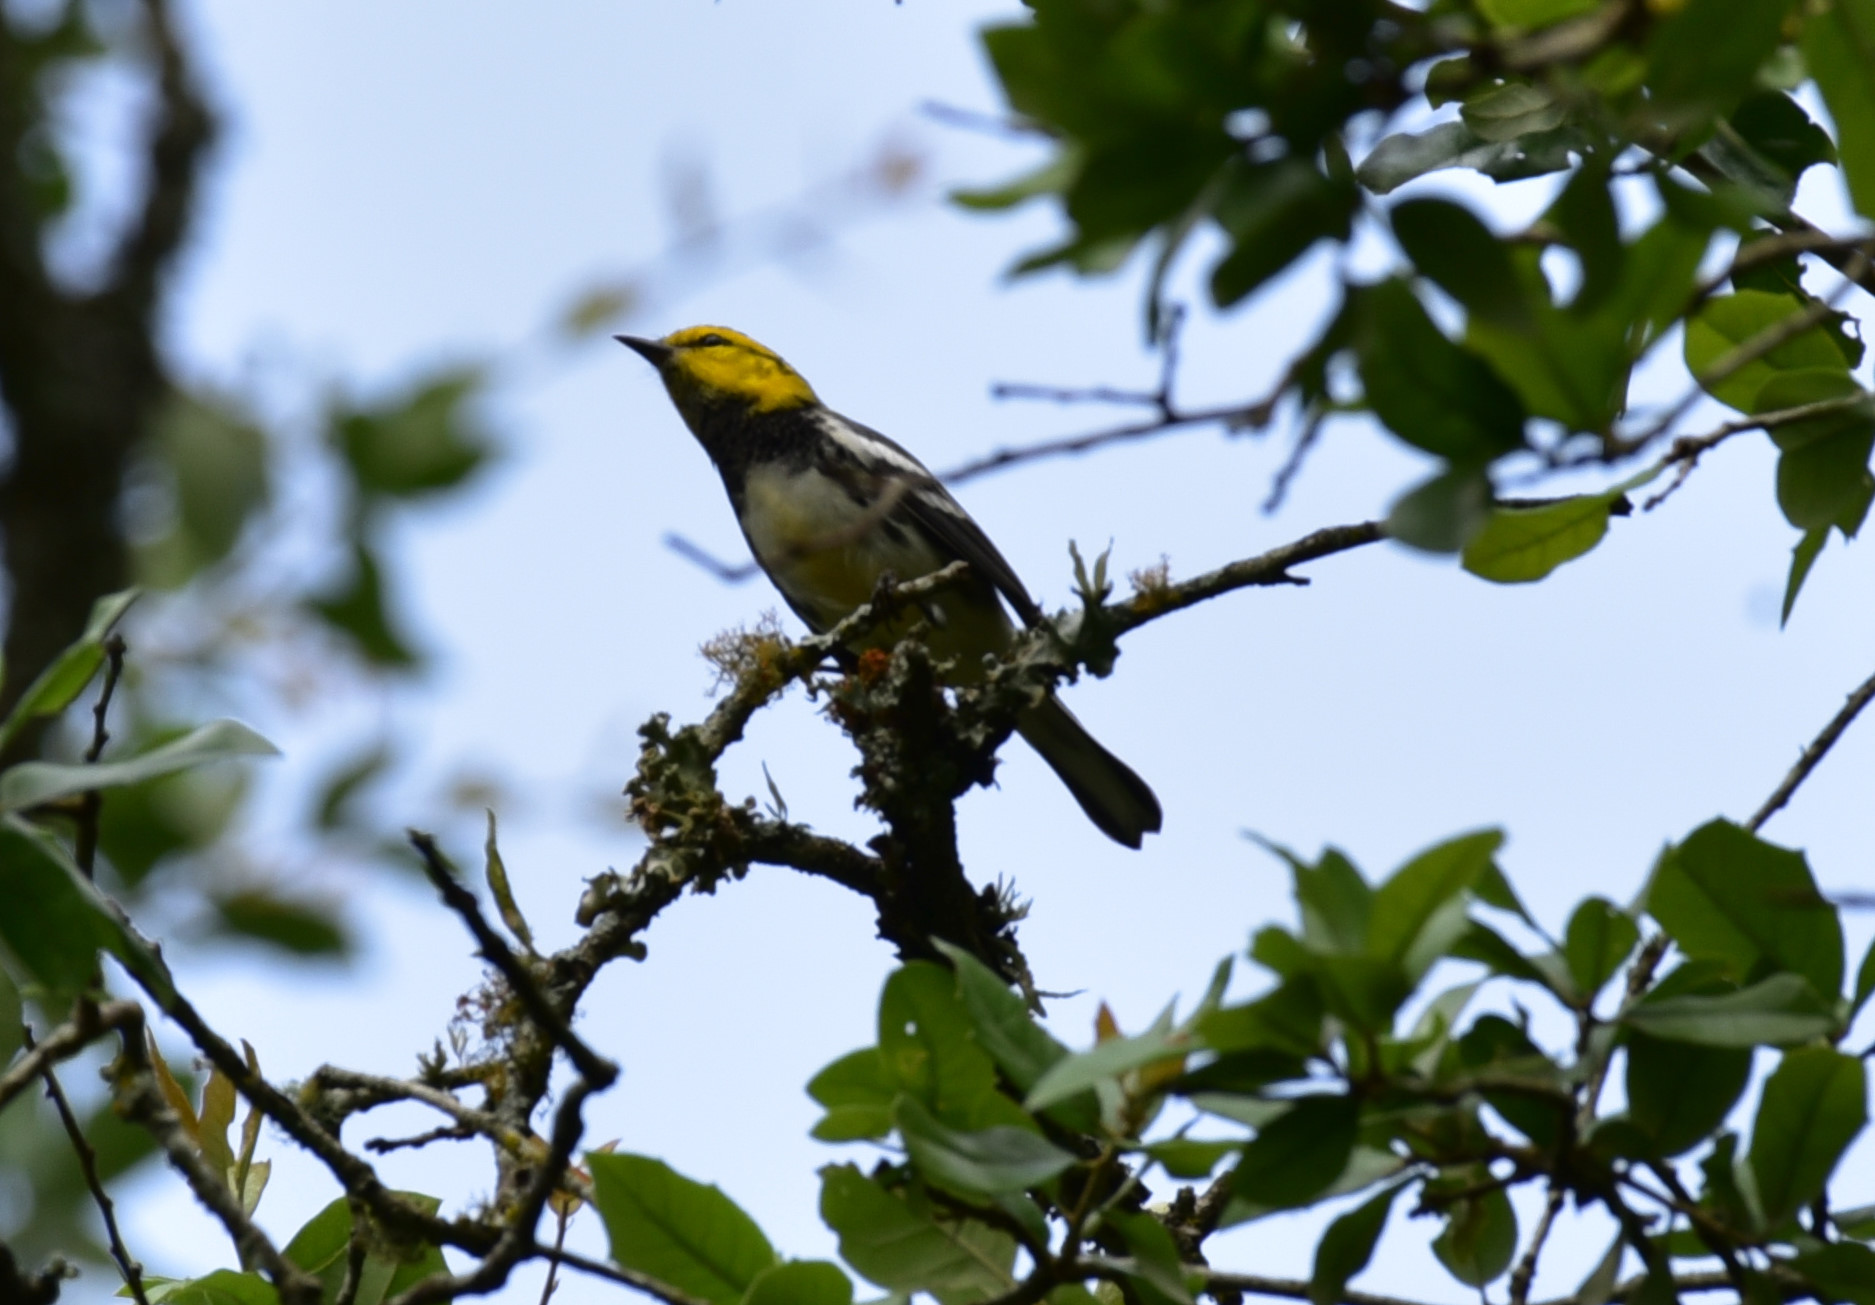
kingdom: Animalia
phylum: Chordata
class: Aves
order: Passeriformes
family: Parulidae
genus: Setophaga
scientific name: Setophaga chrysoparia
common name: Golden-cheeked warbler
